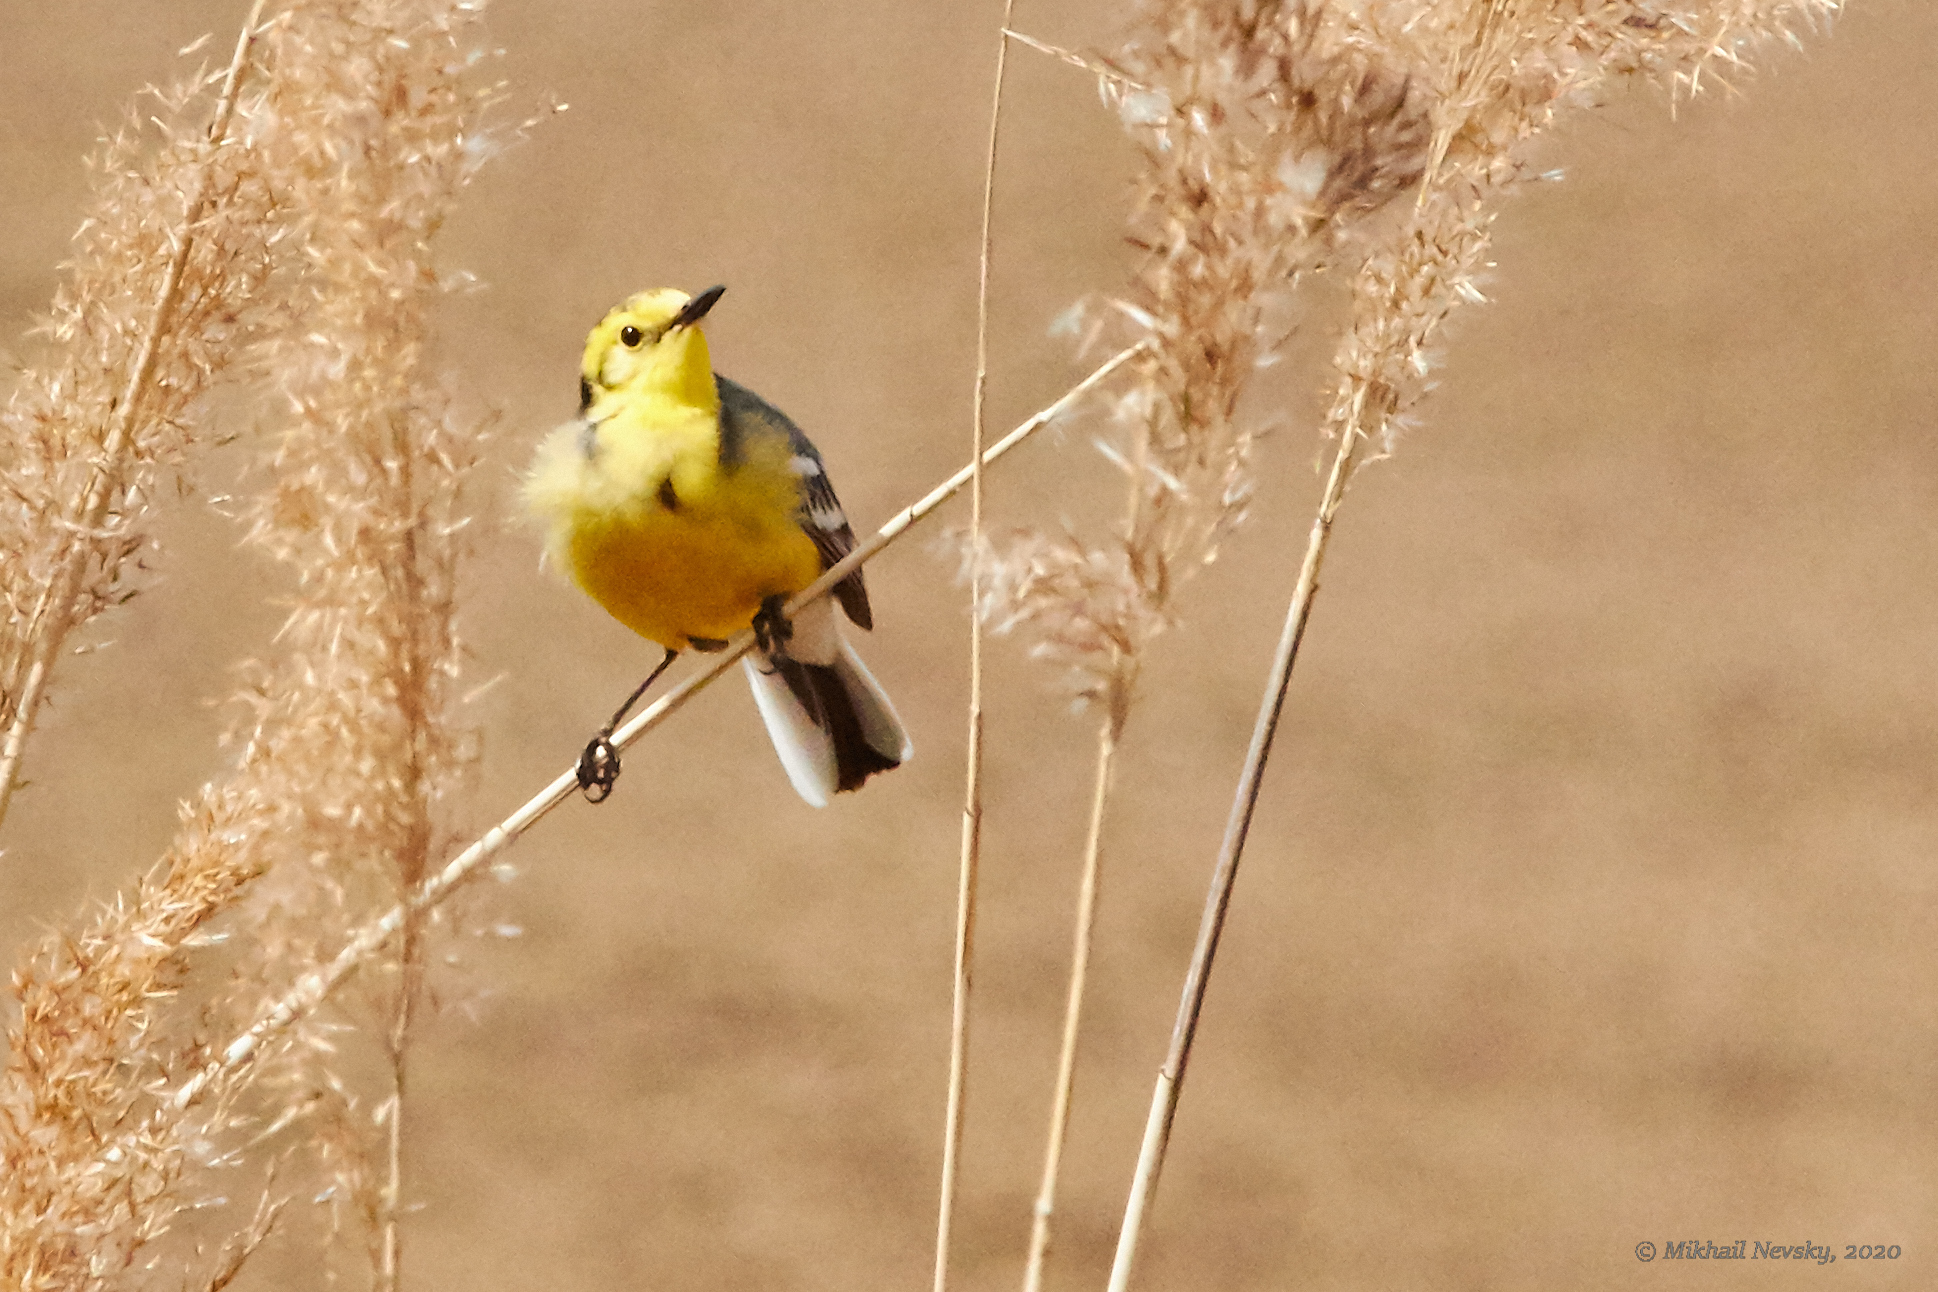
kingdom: Animalia
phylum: Chordata
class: Aves
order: Passeriformes
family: Motacillidae
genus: Motacilla
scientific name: Motacilla citreola
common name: Citrine wagtail
